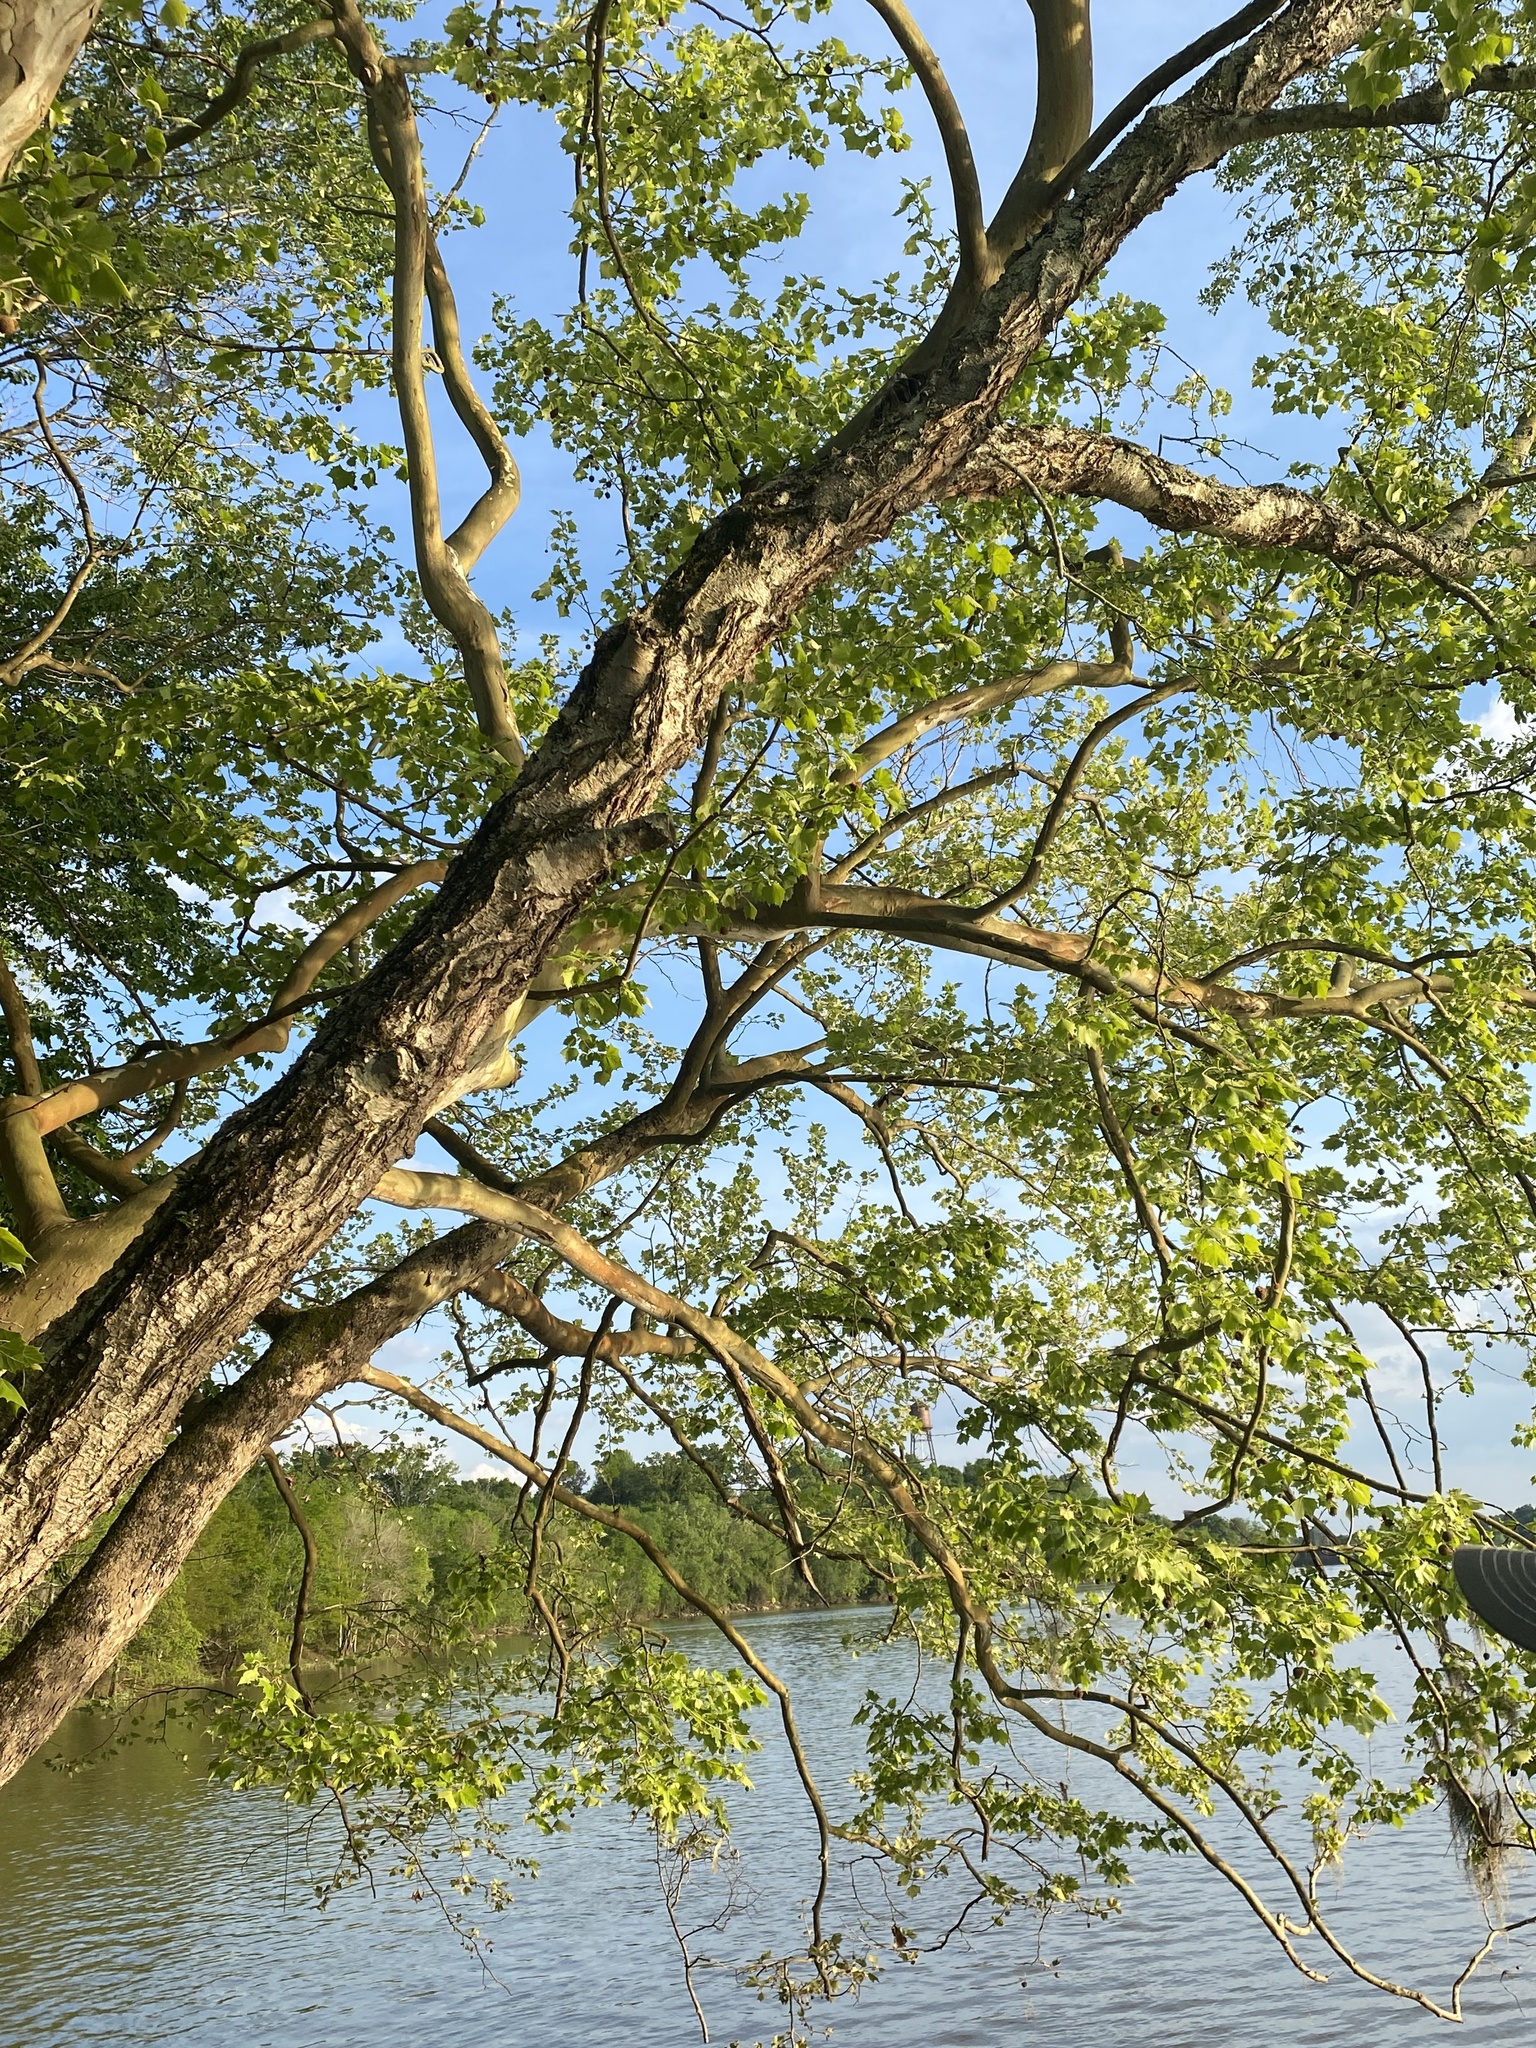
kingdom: Plantae
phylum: Tracheophyta
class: Magnoliopsida
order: Proteales
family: Platanaceae
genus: Platanus
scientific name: Platanus occidentalis
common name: American sycamore
